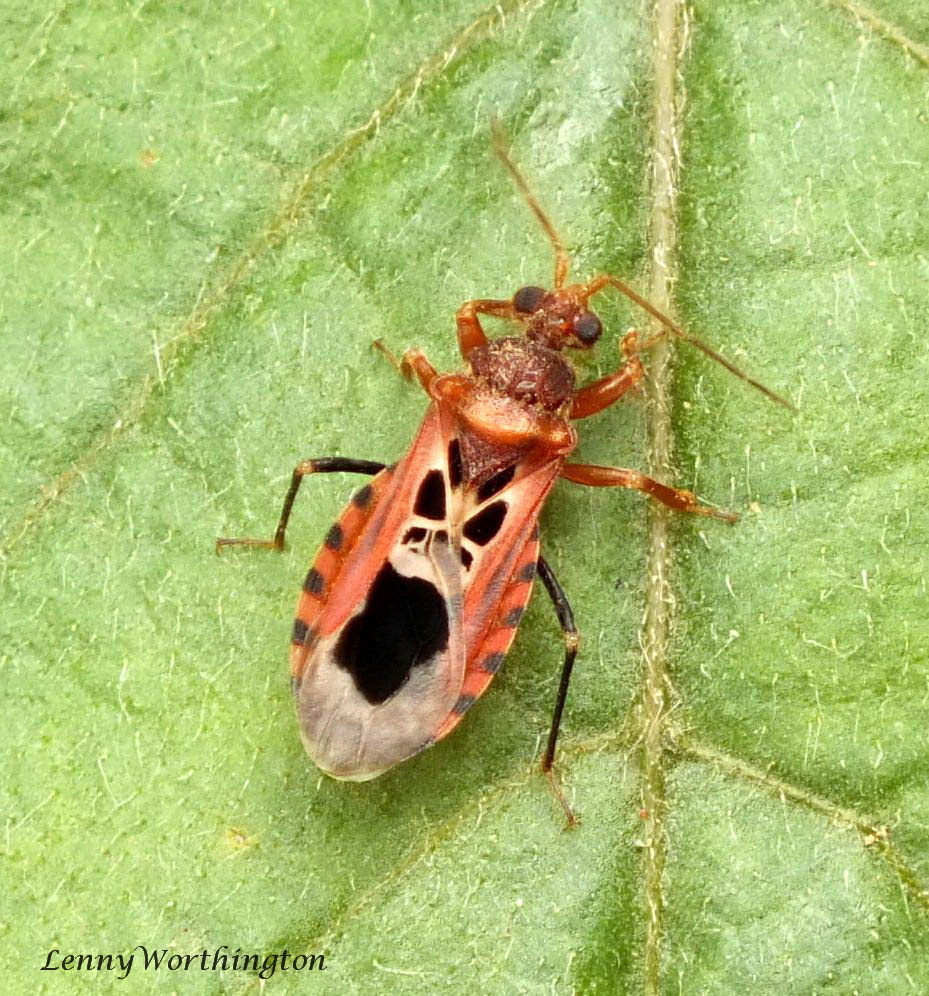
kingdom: Animalia
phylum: Arthropoda
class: Insecta
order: Hemiptera
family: Reduviidae
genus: Androclus
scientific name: Androclus pictus
